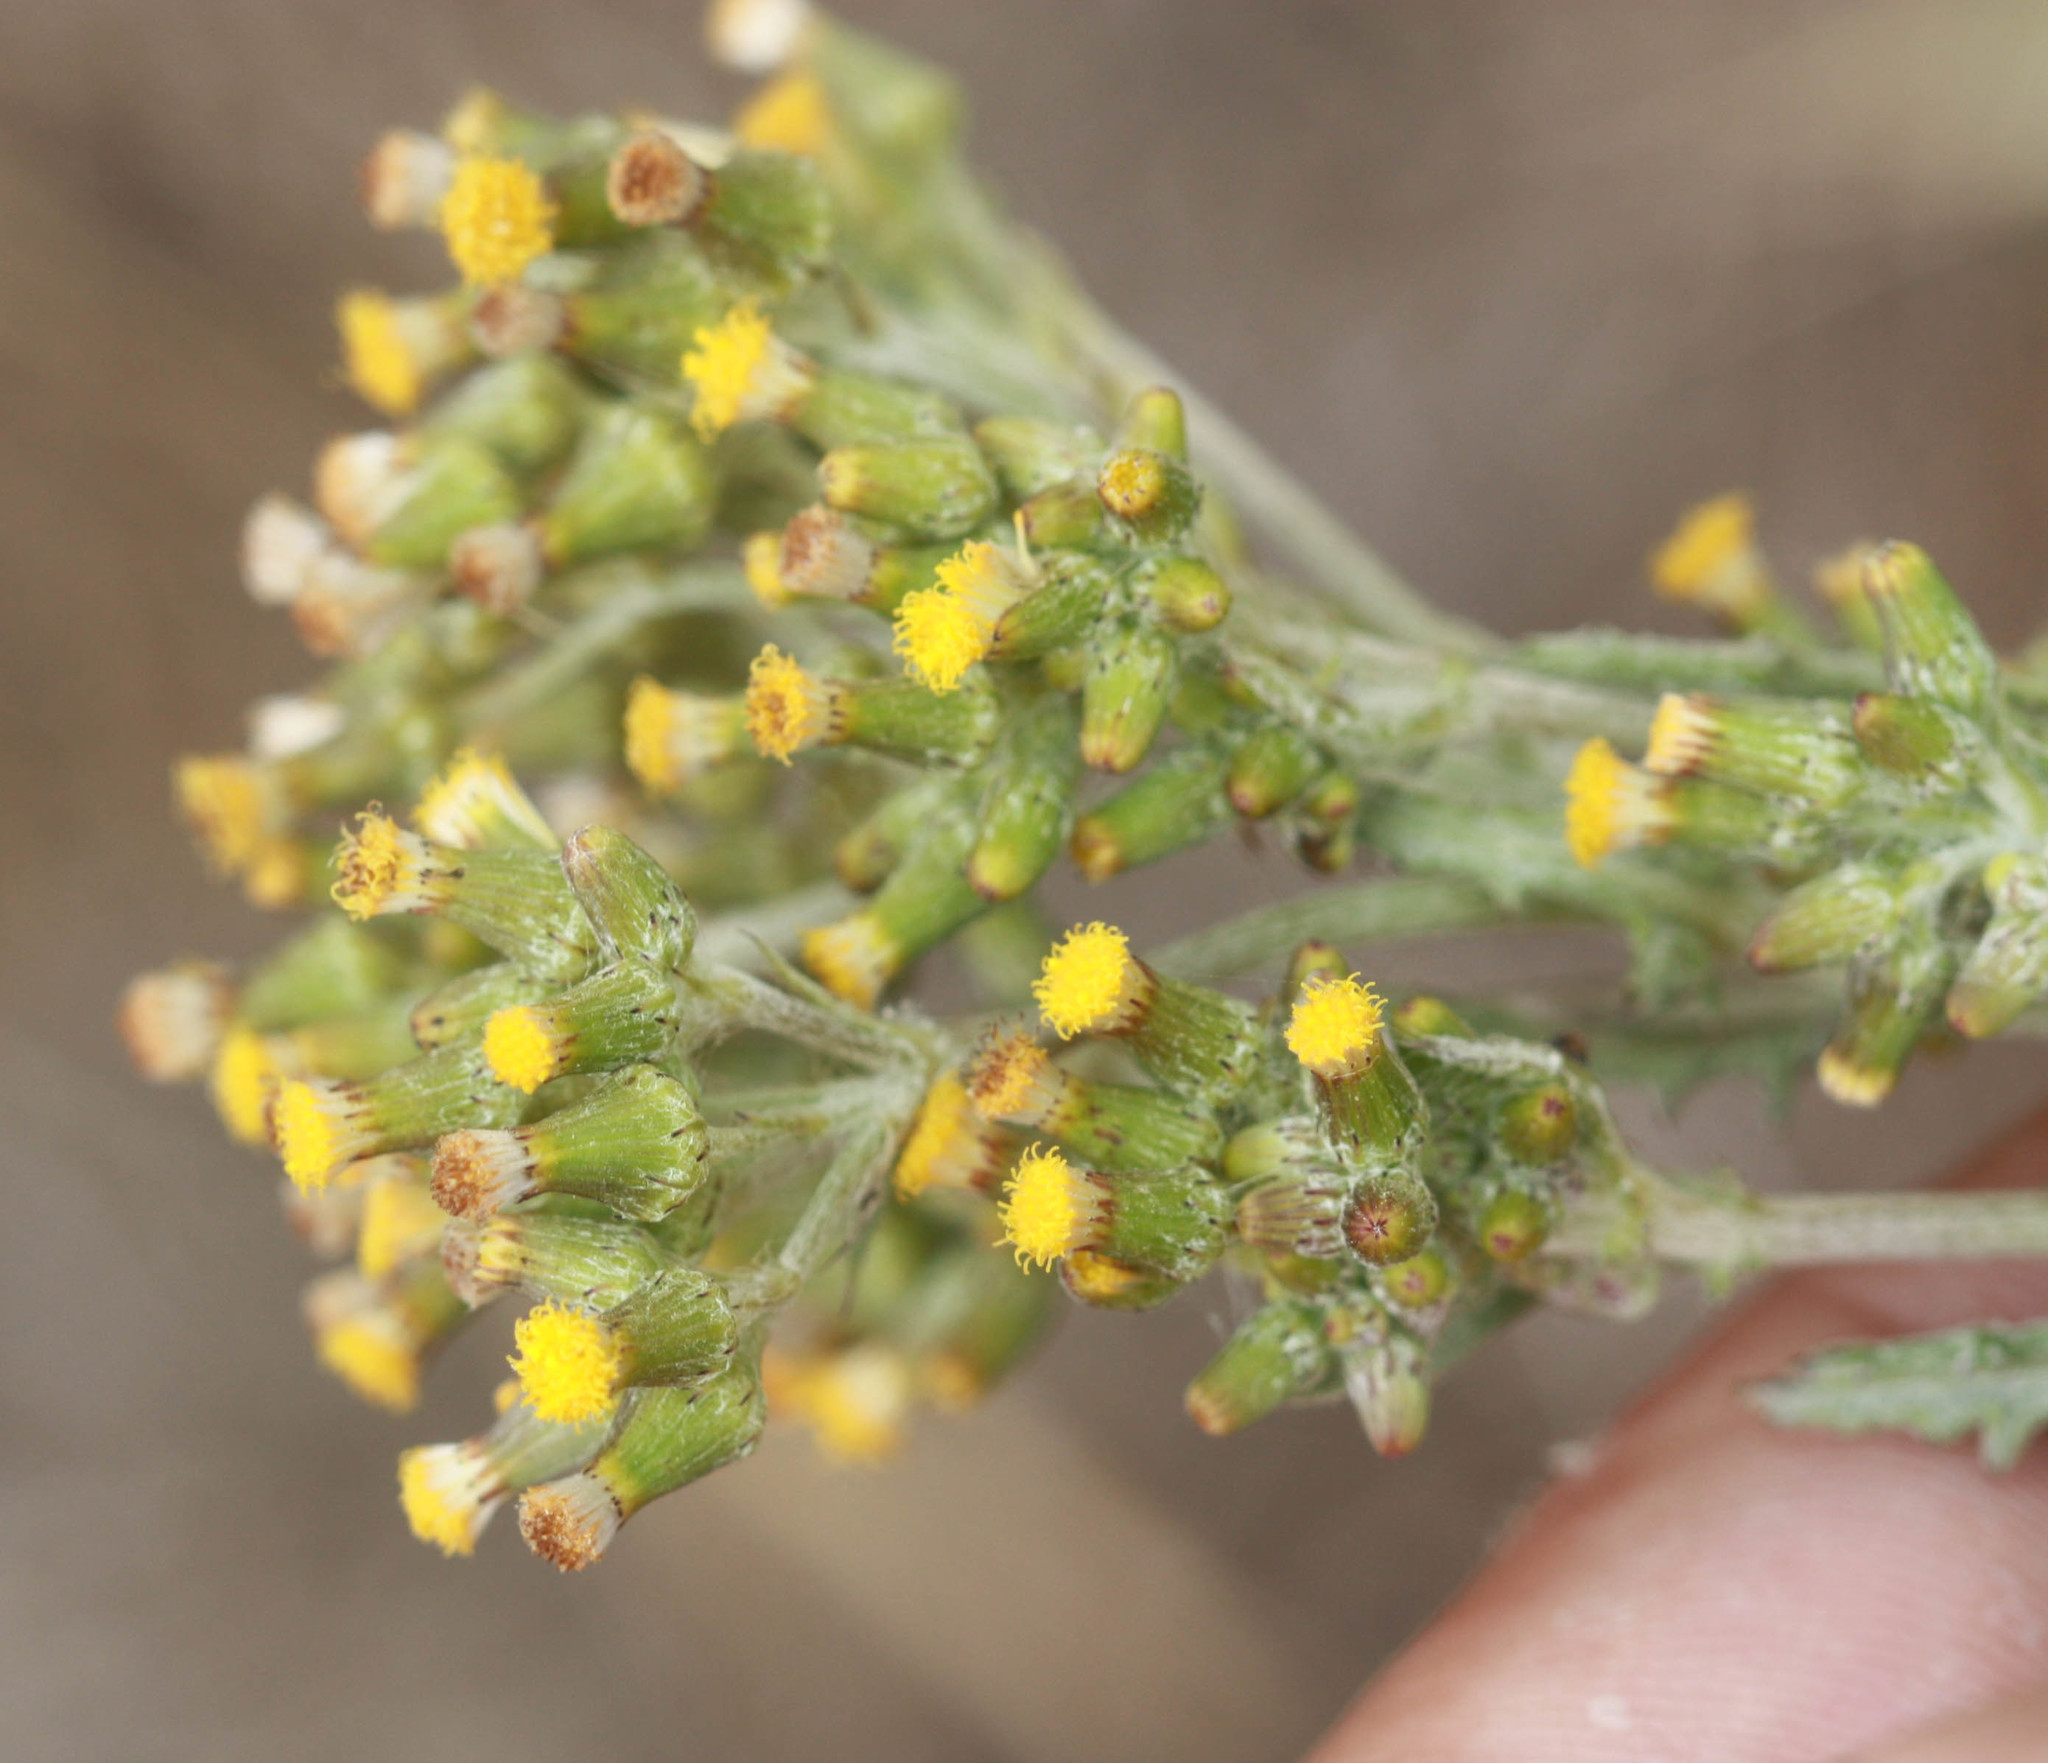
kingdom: Plantae
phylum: Tracheophyta
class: Magnoliopsida
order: Asterales
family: Asteraceae
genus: Senecio
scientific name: Senecio glomeratus
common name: Cutleaf burnweed
